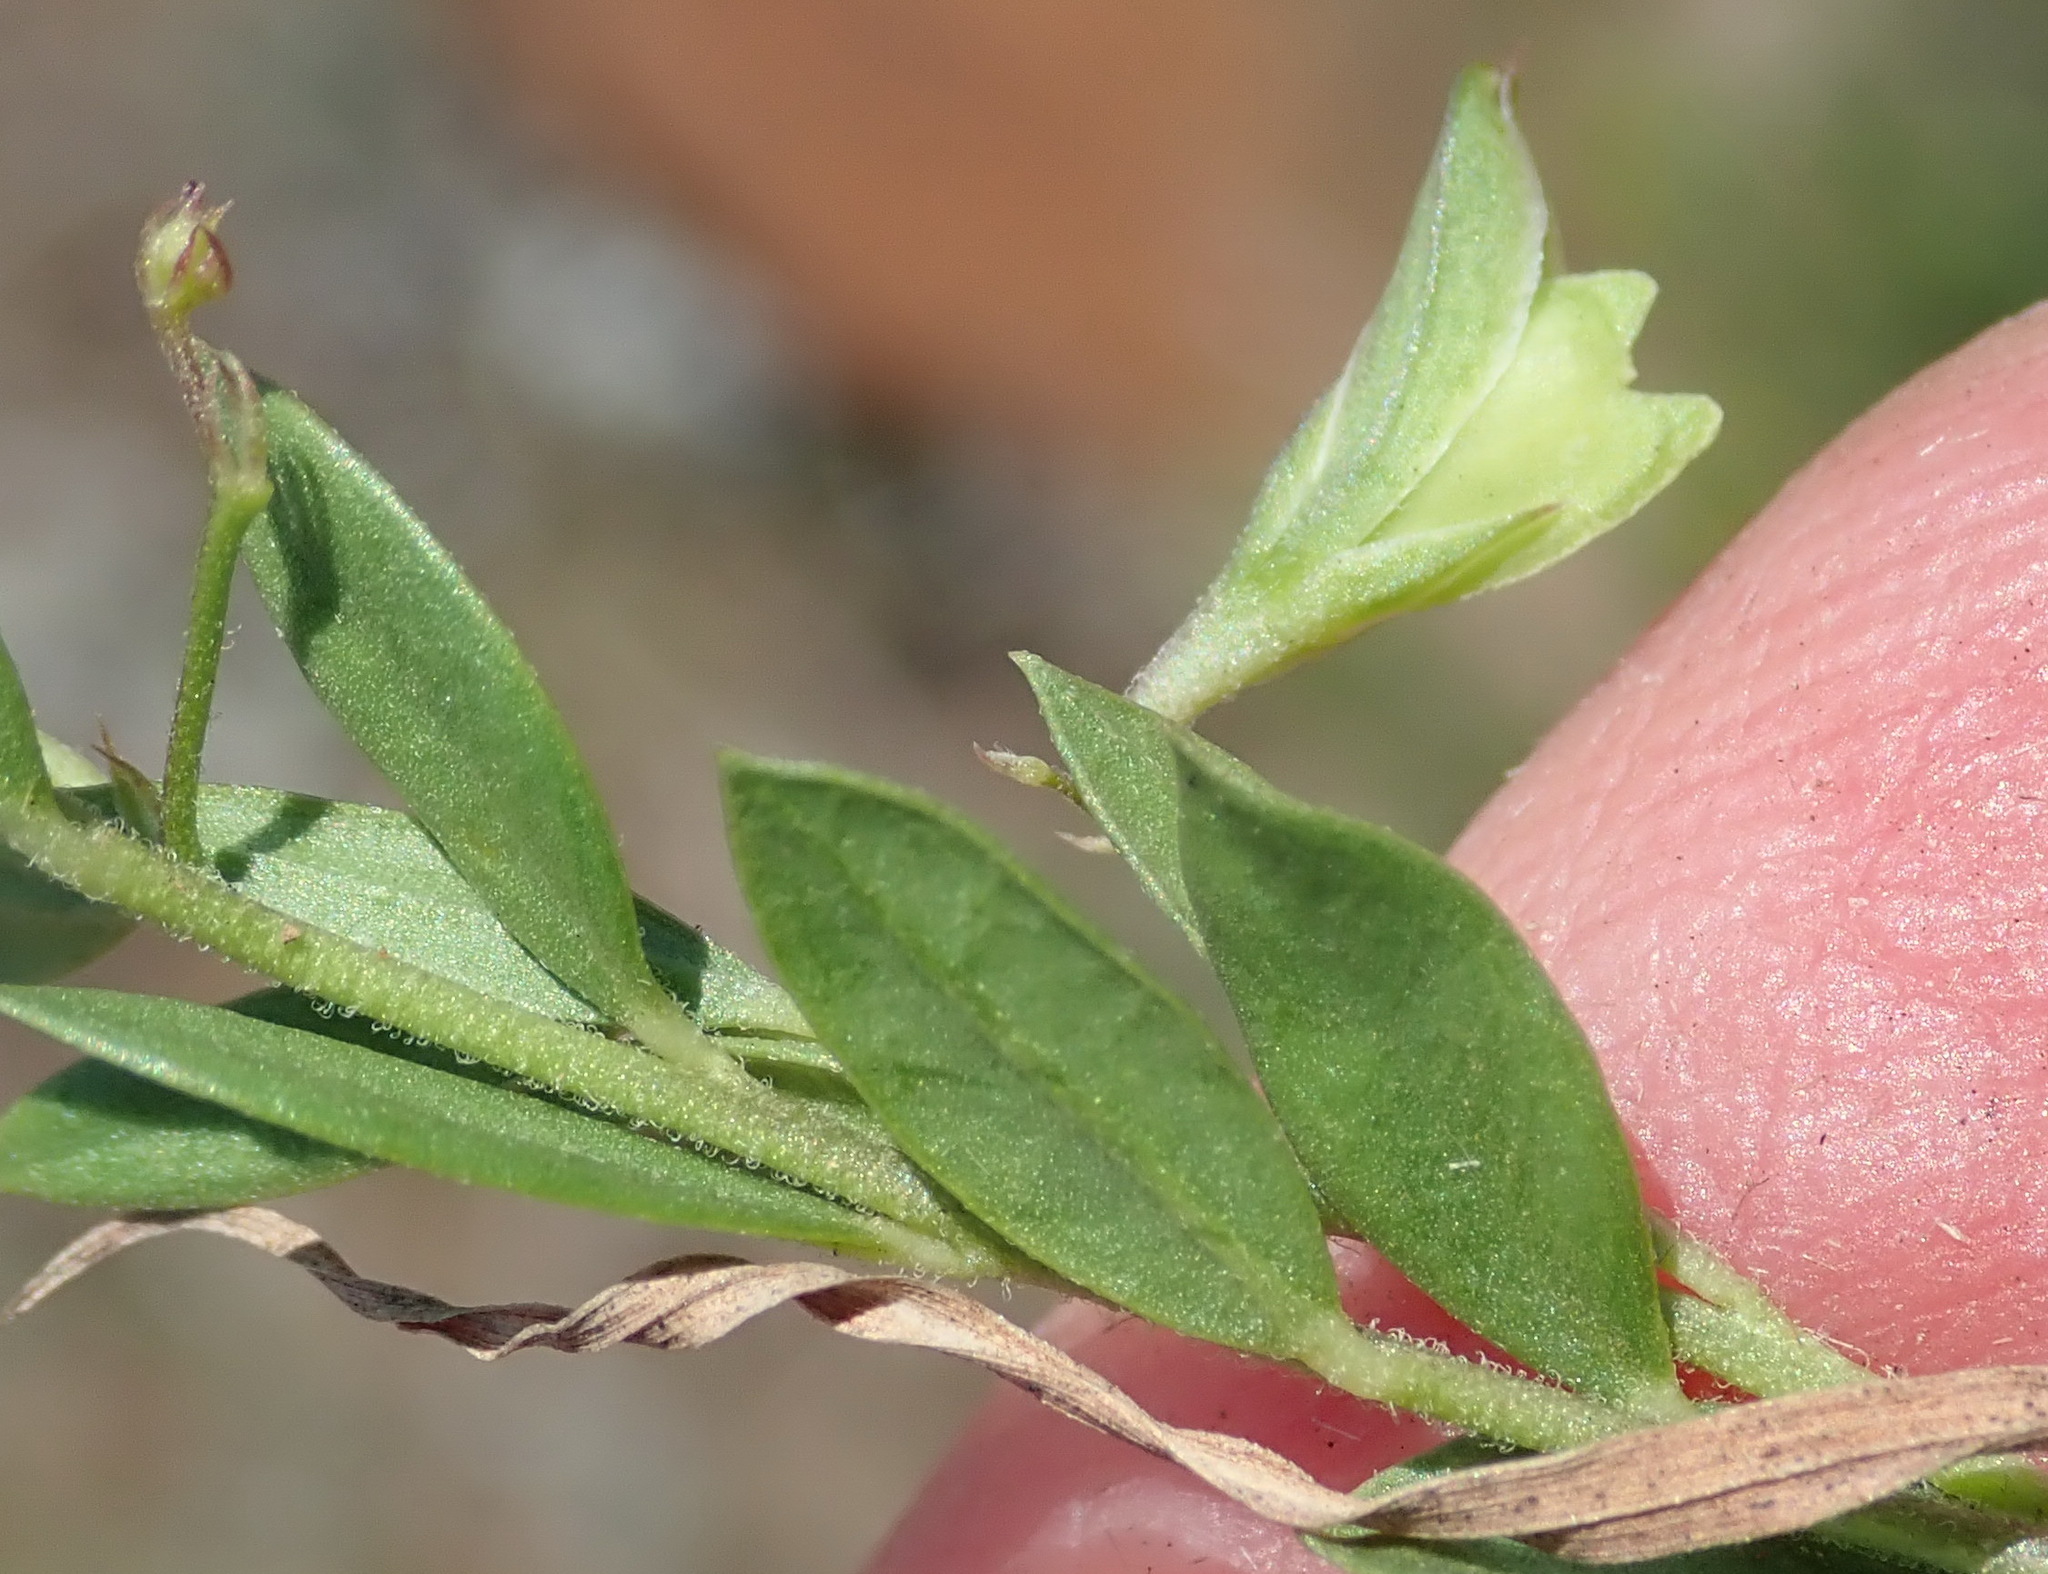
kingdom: Plantae
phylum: Tracheophyta
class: Magnoliopsida
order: Fabales
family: Polygalaceae
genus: Polygala
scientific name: Polygala amatymbica
